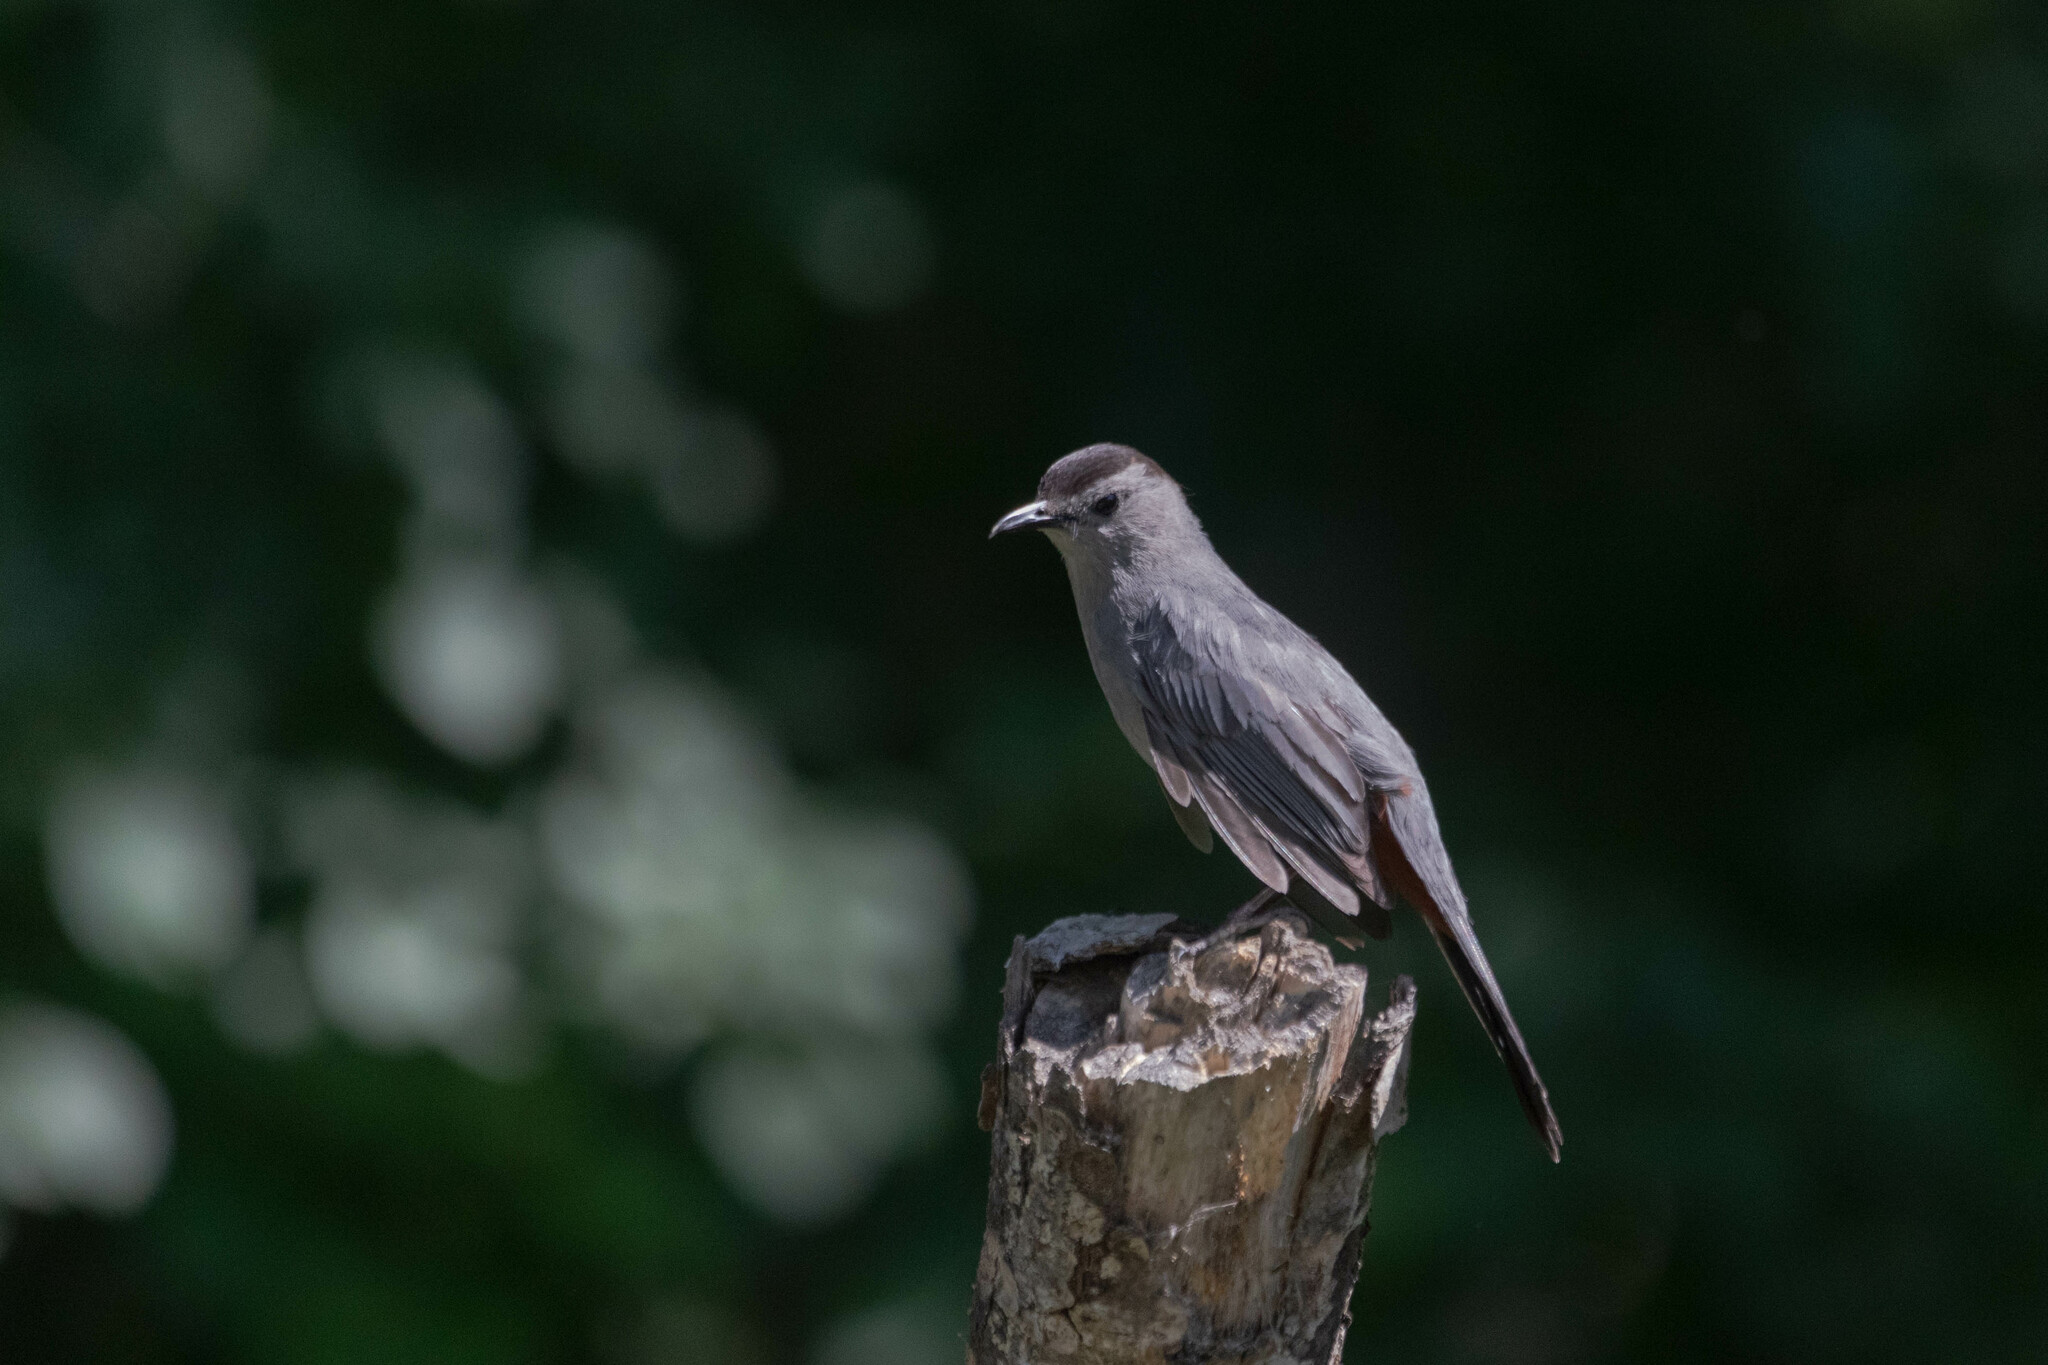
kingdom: Animalia
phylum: Chordata
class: Aves
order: Passeriformes
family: Mimidae
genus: Dumetella
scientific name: Dumetella carolinensis
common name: Gray catbird
